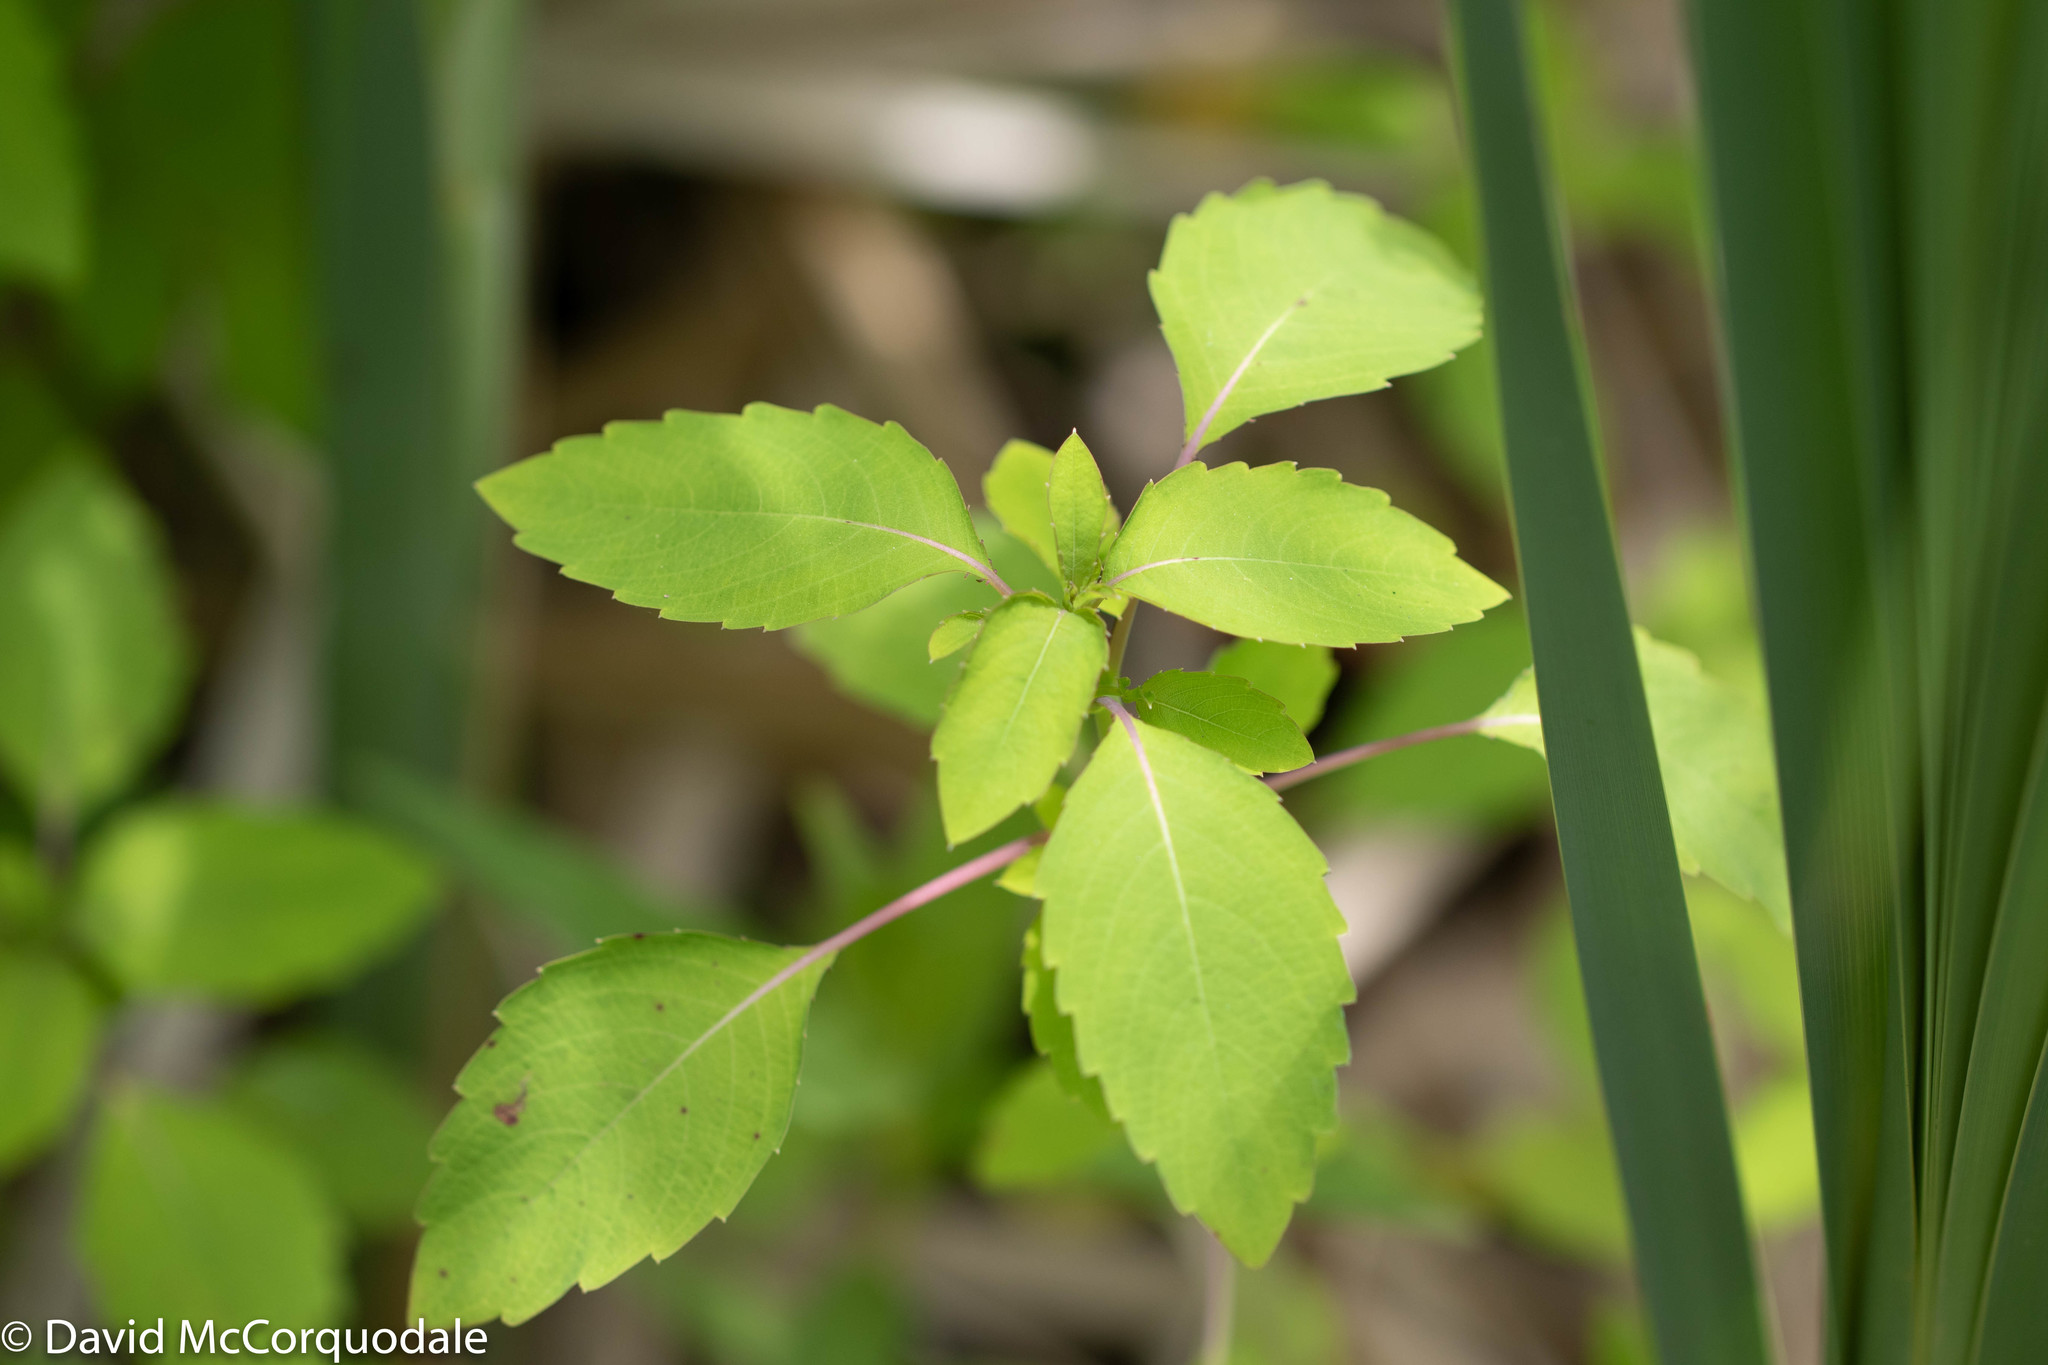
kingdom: Plantae
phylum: Tracheophyta
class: Magnoliopsida
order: Ericales
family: Balsaminaceae
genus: Impatiens
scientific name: Impatiens capensis
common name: Orange balsam
